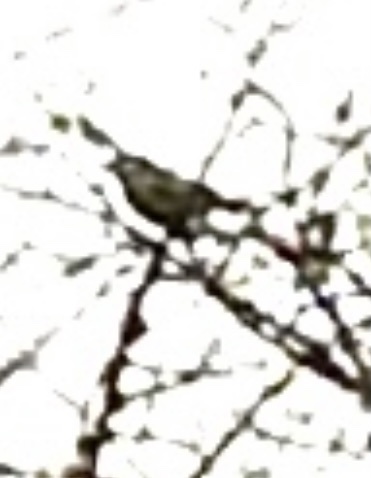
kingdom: Animalia
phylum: Chordata
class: Aves
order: Passeriformes
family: Paridae
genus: Parus
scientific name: Parus major
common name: Great tit
